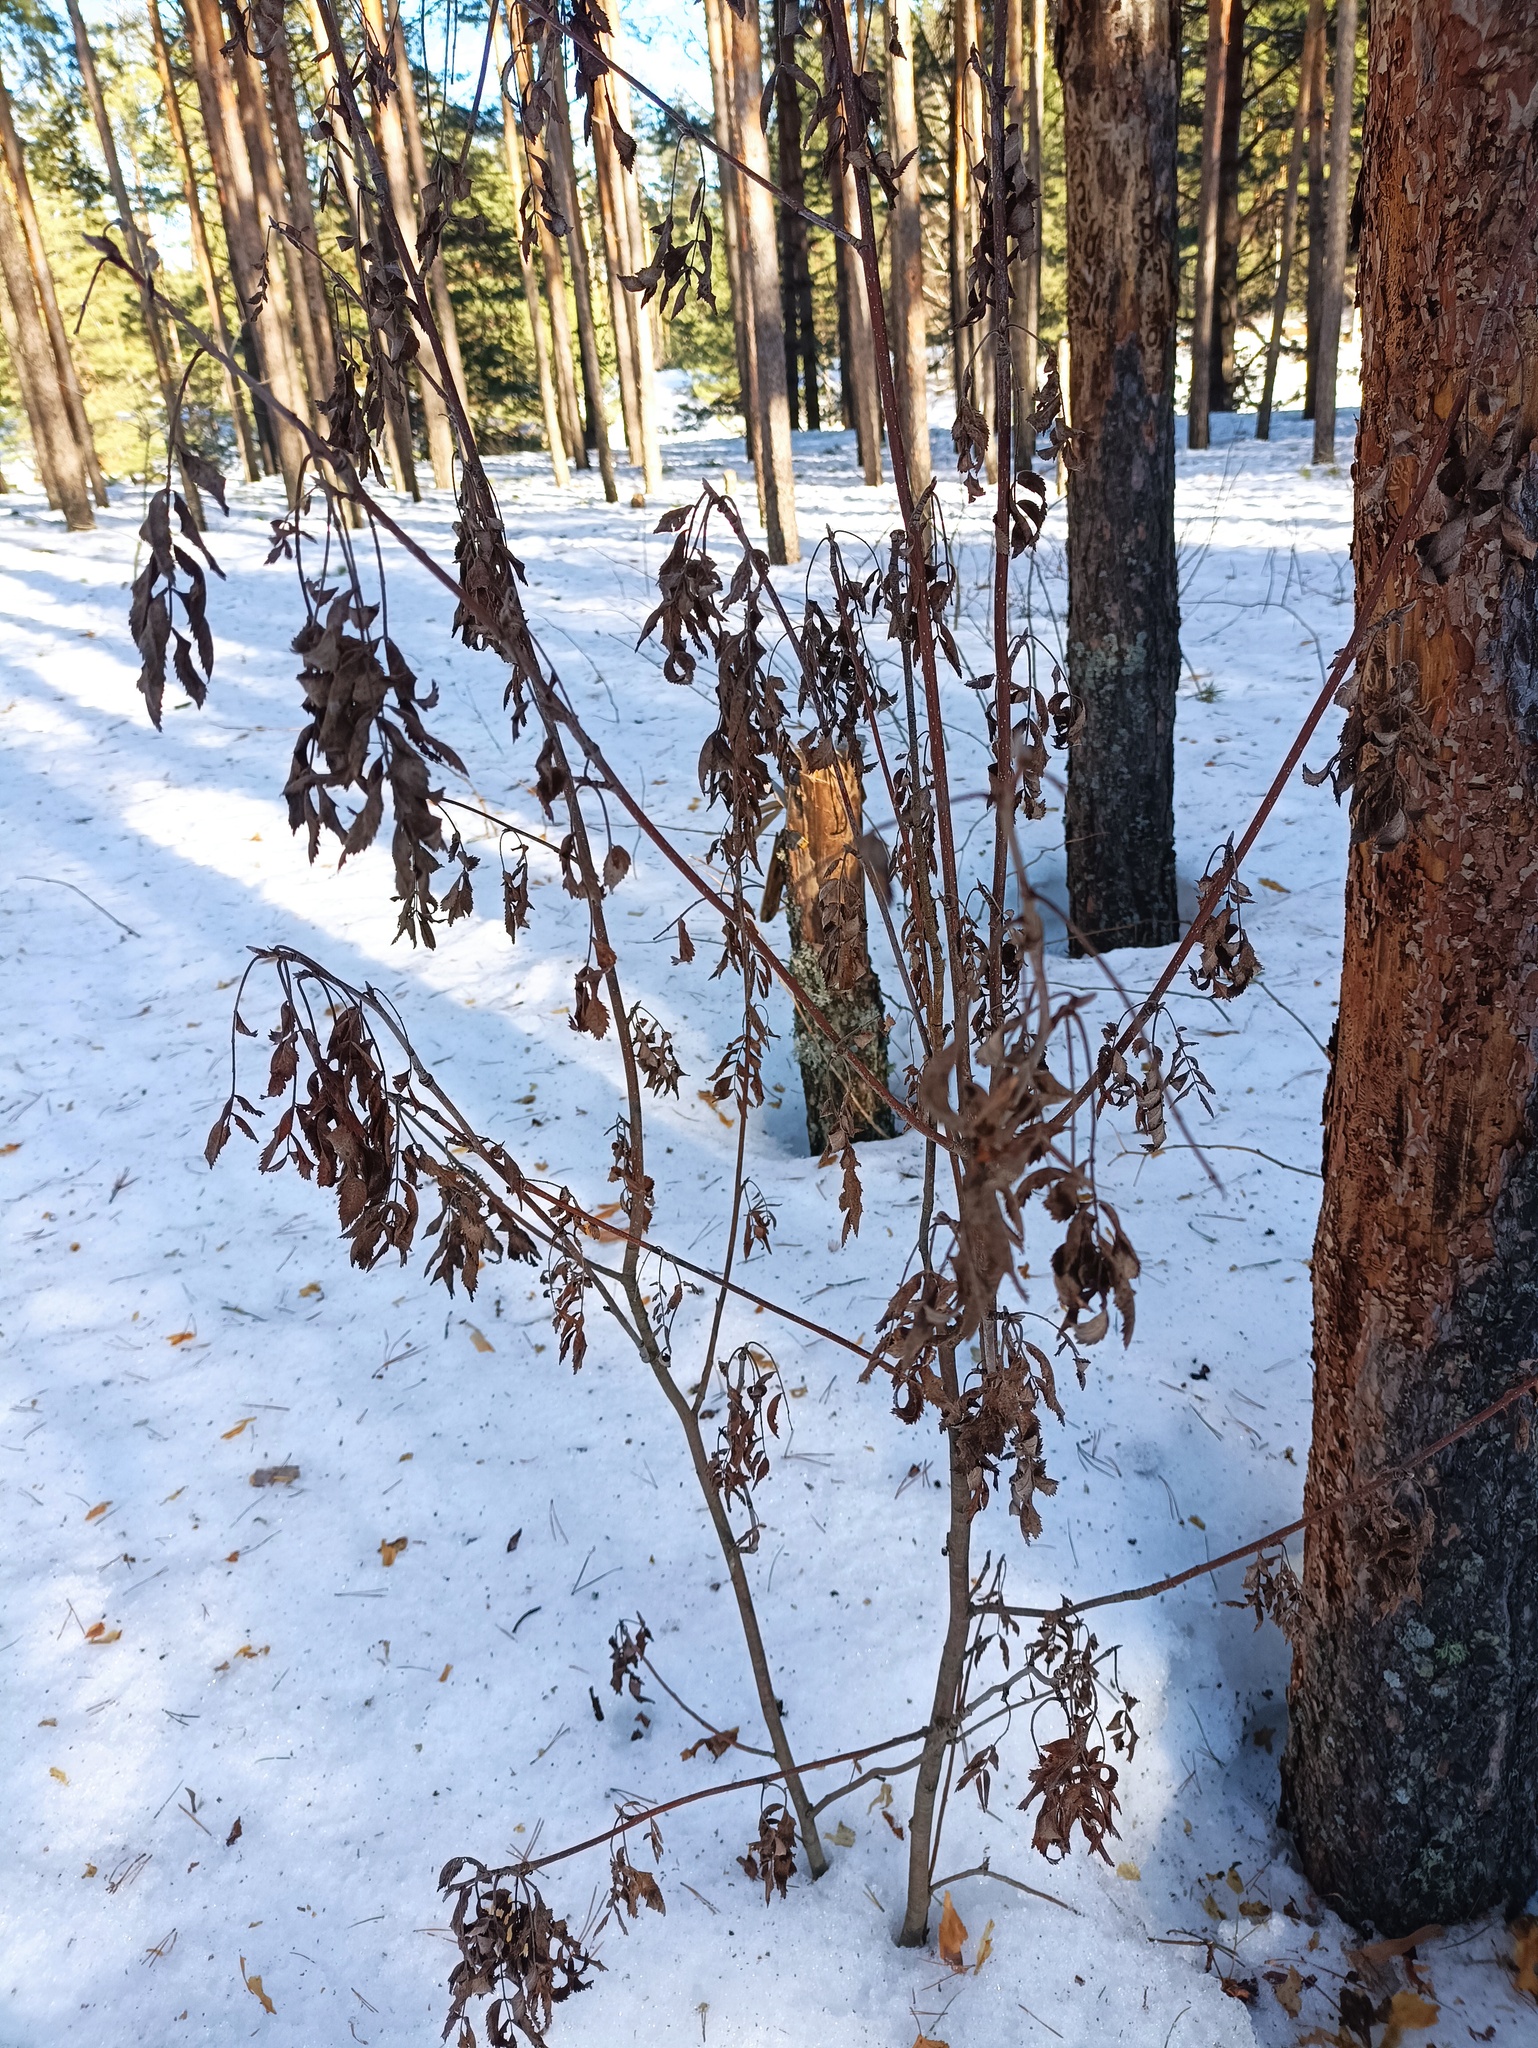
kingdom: Plantae
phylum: Tracheophyta
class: Magnoliopsida
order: Rosales
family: Rosaceae
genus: Sorbus
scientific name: Sorbus aucuparia
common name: Rowan
